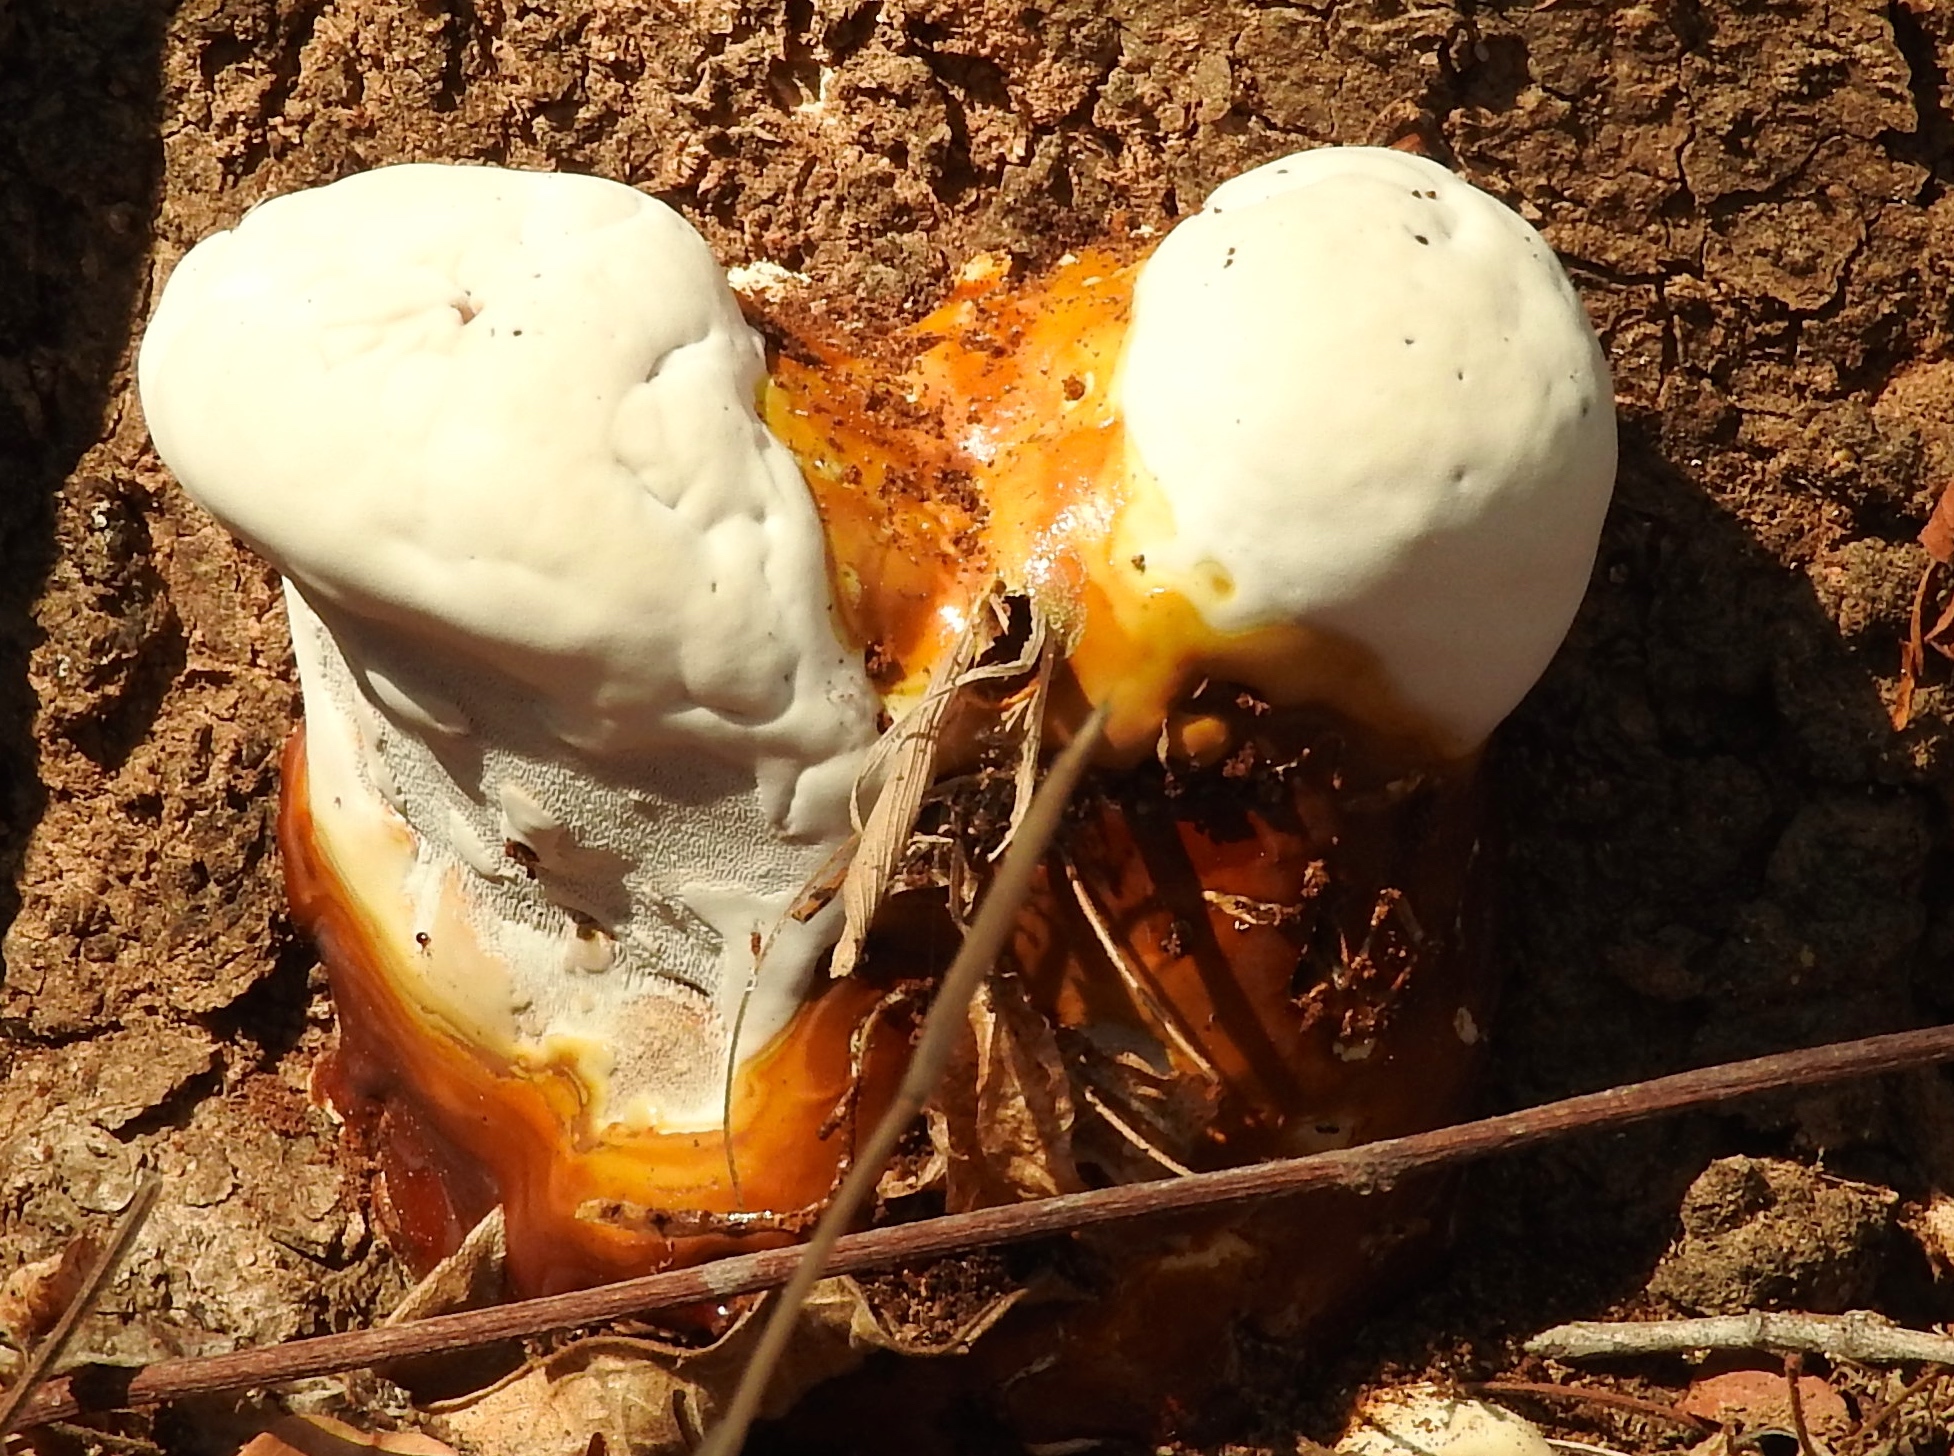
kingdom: Fungi
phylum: Basidiomycota
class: Agaricomycetes
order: Polyporales
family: Polyporaceae
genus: Ganoderma
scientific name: Ganoderma
